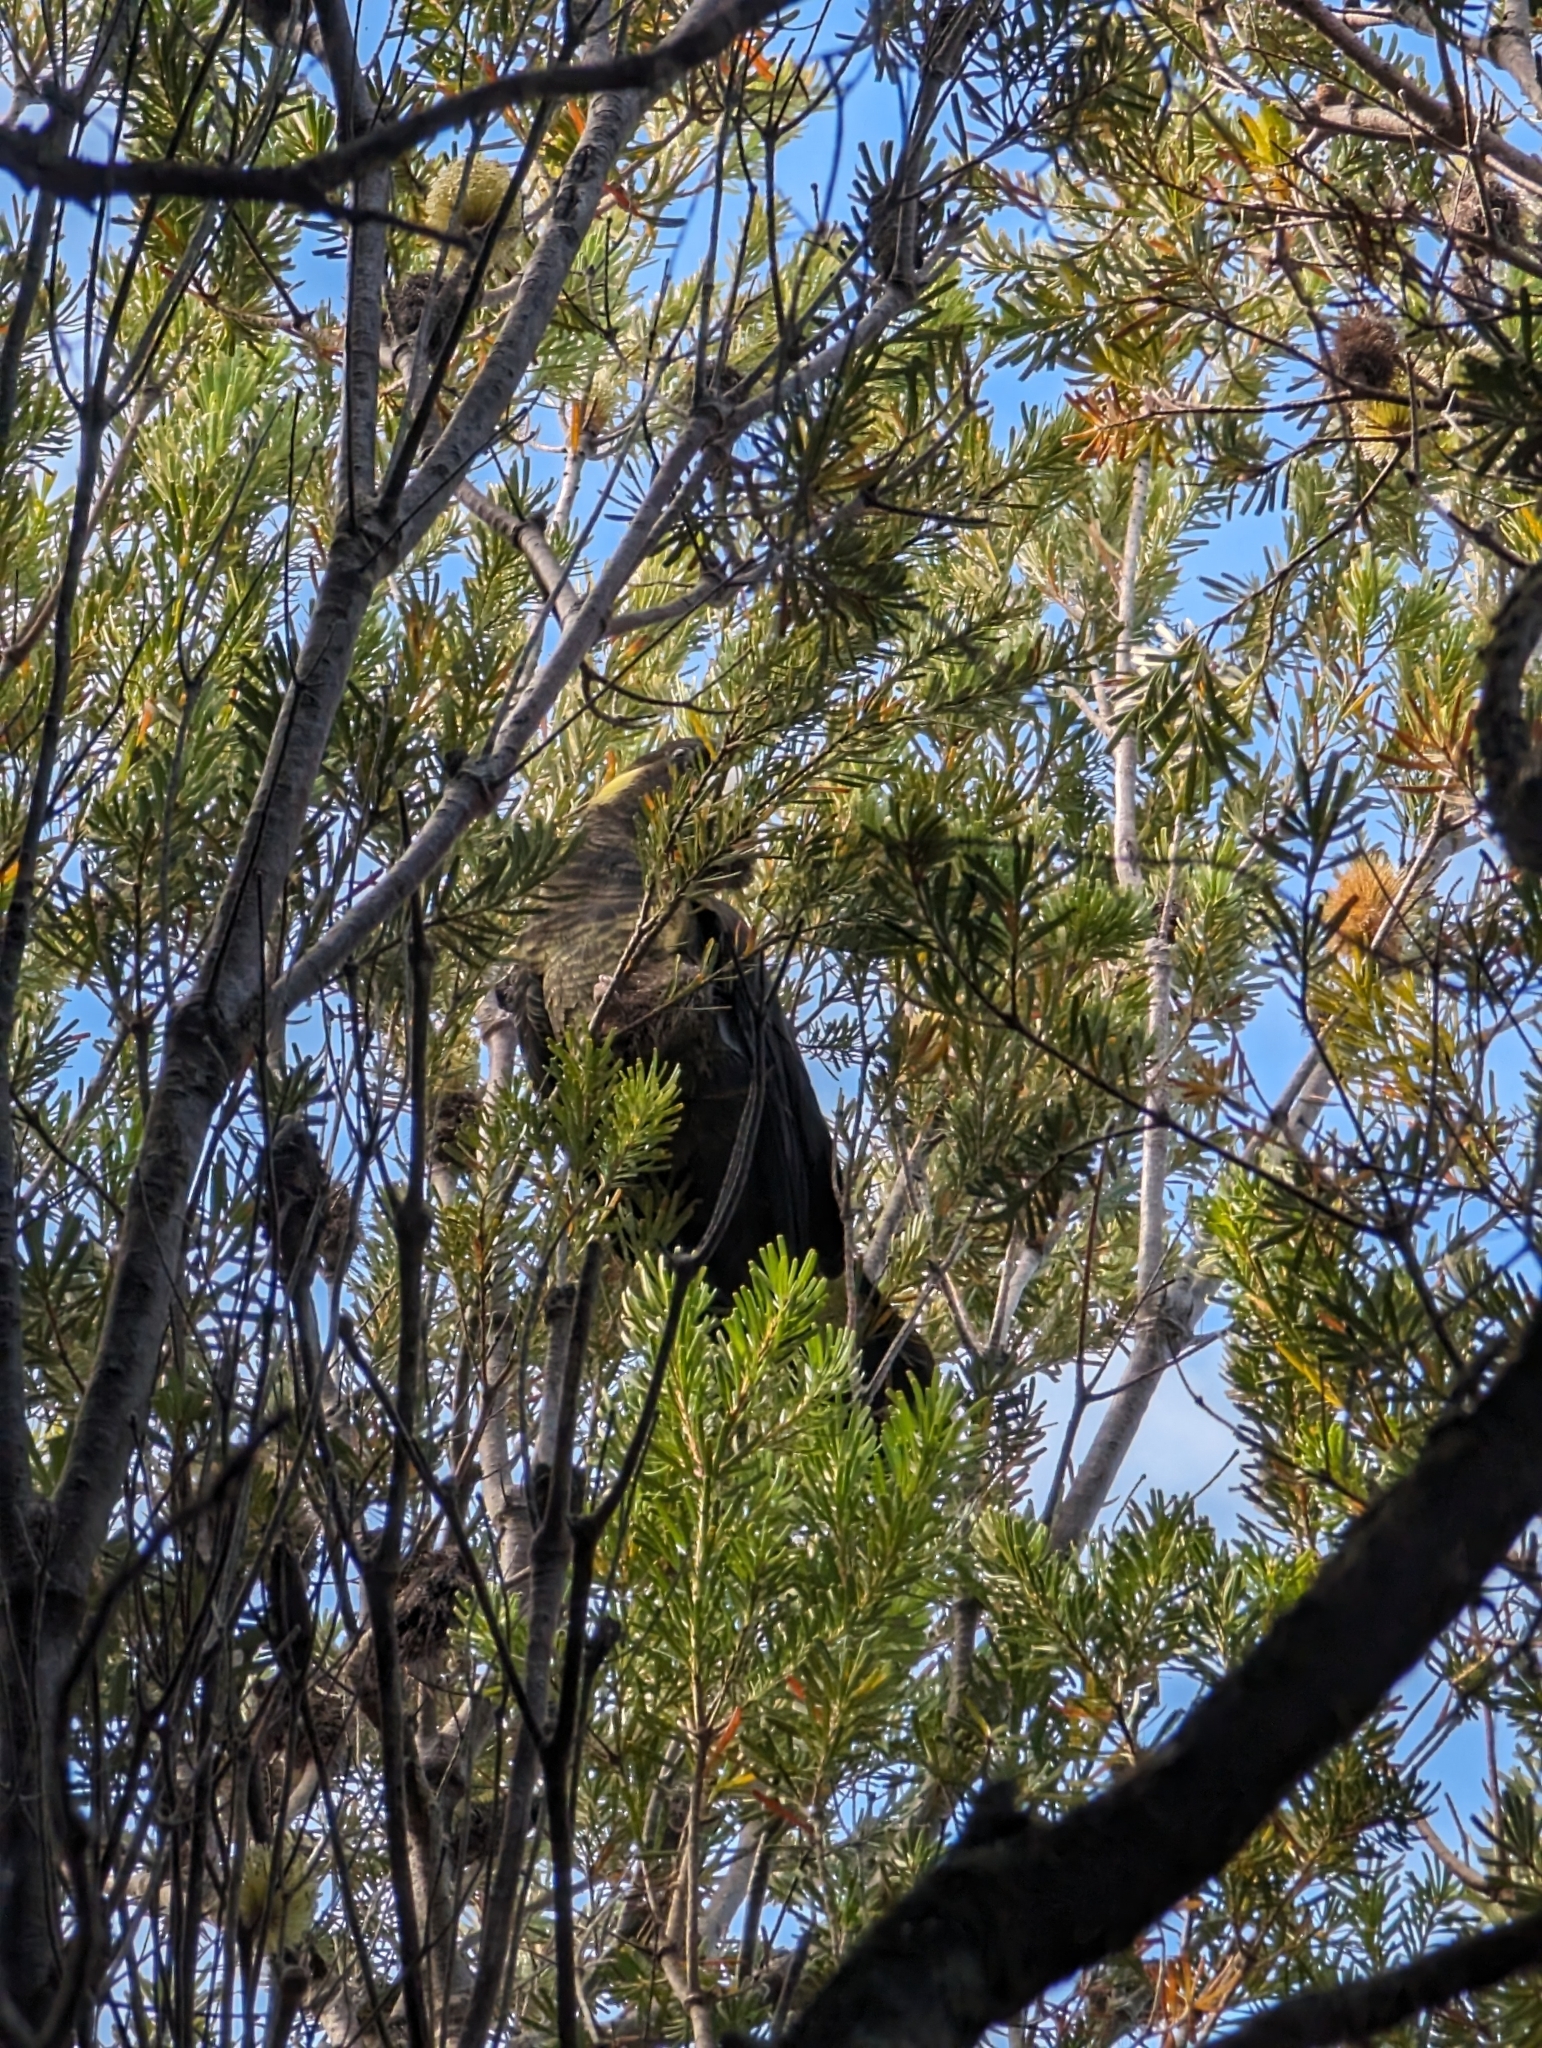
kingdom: Animalia
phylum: Chordata
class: Aves
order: Psittaciformes
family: Cacatuidae
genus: Zanda
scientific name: Zanda funerea
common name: Yellow-tailed black-cockatoo
